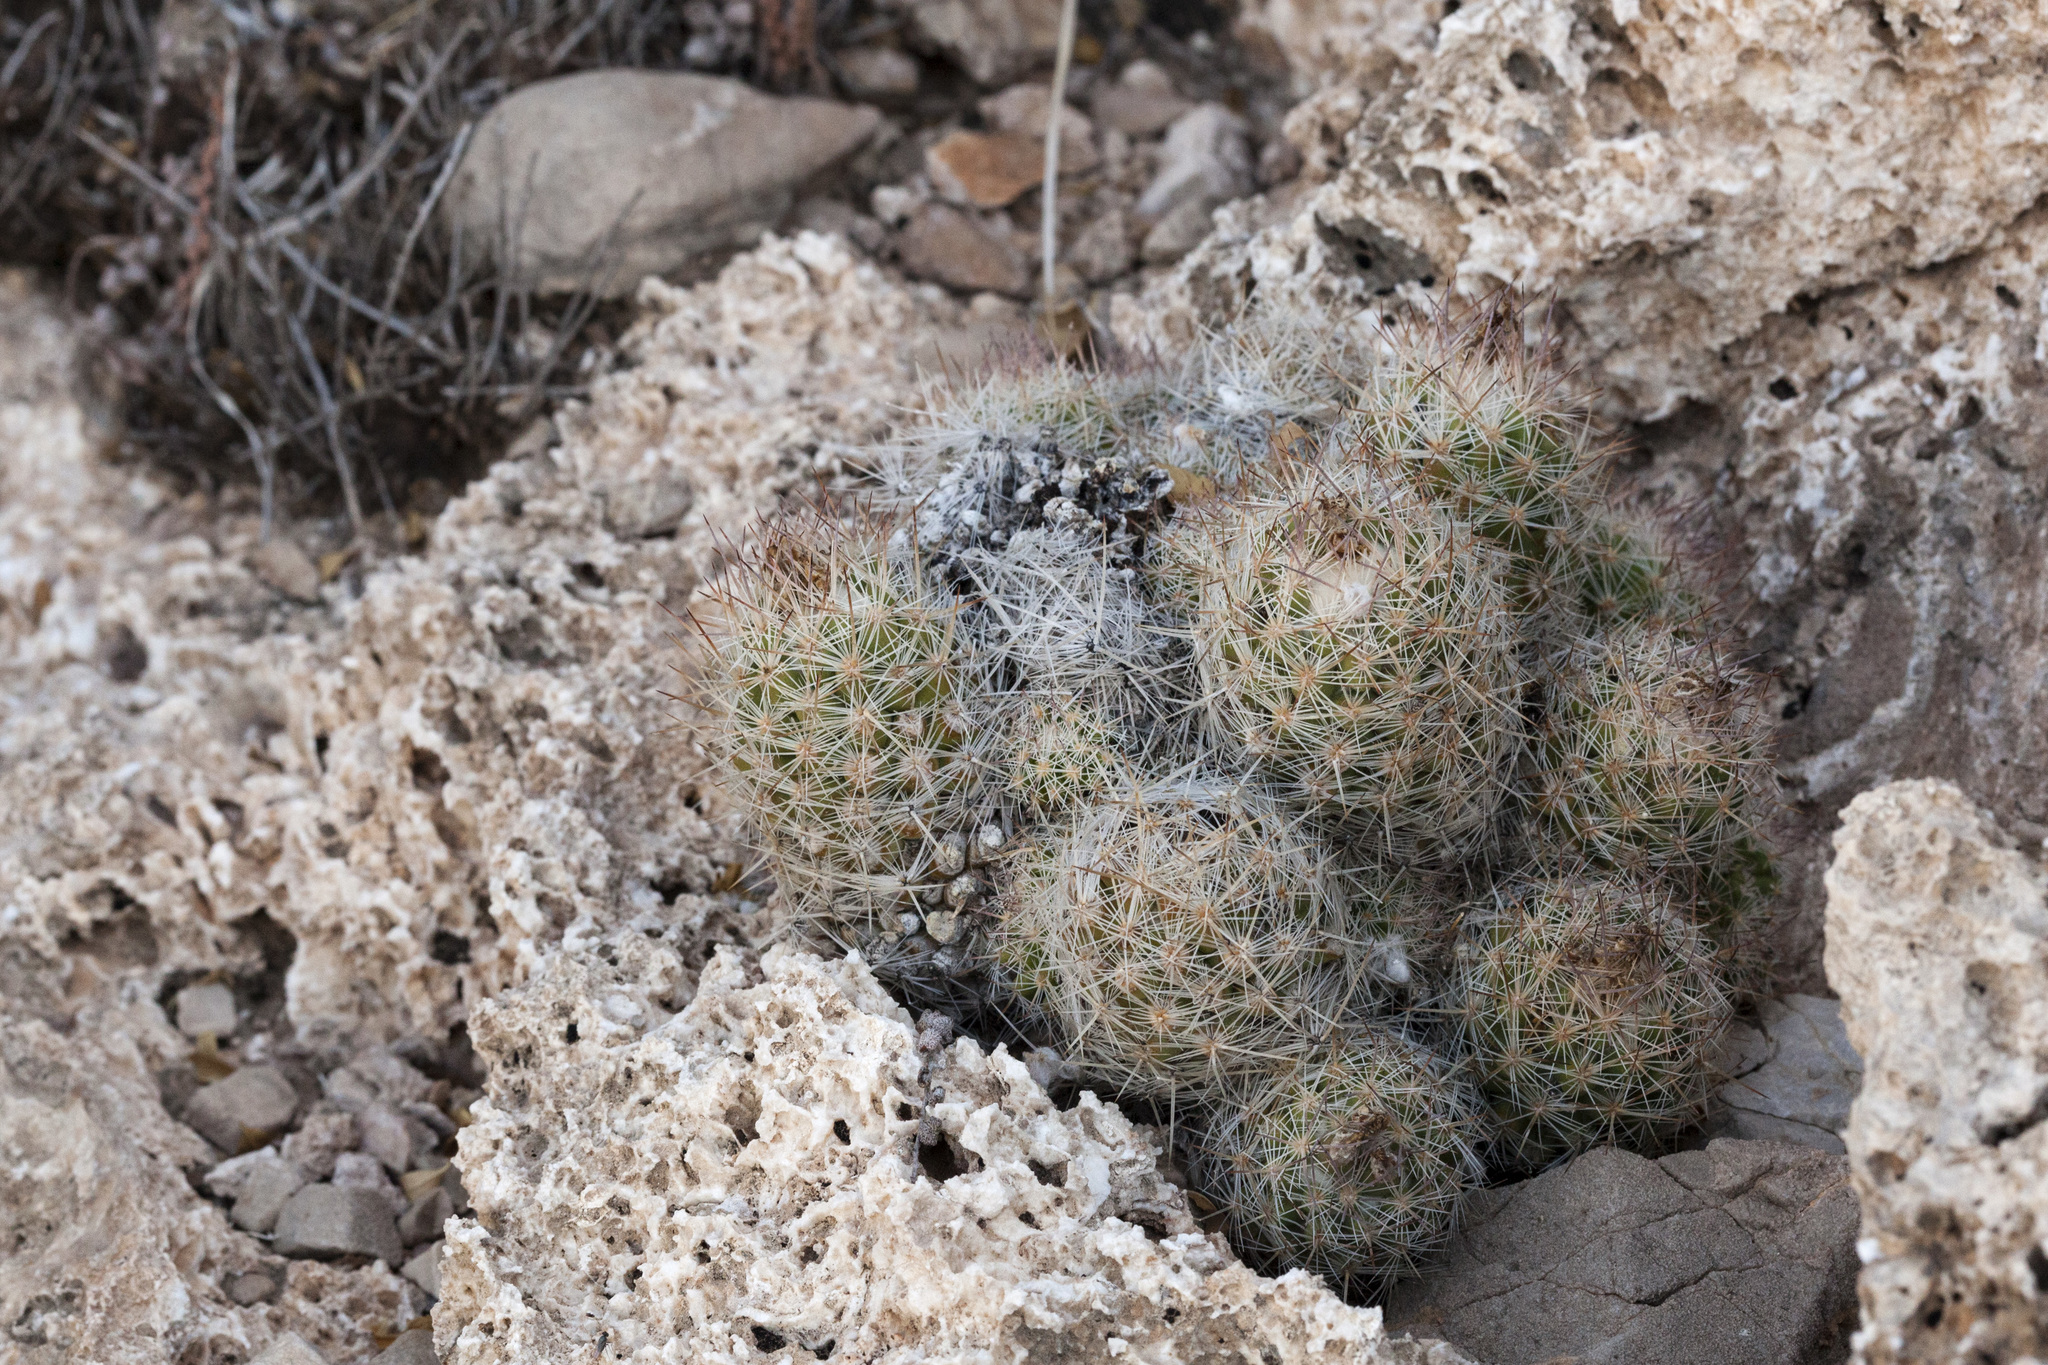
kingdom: Plantae
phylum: Tracheophyta
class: Magnoliopsida
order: Caryophyllales
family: Cactaceae
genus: Pelecyphora
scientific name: Pelecyphora tuberculosa
